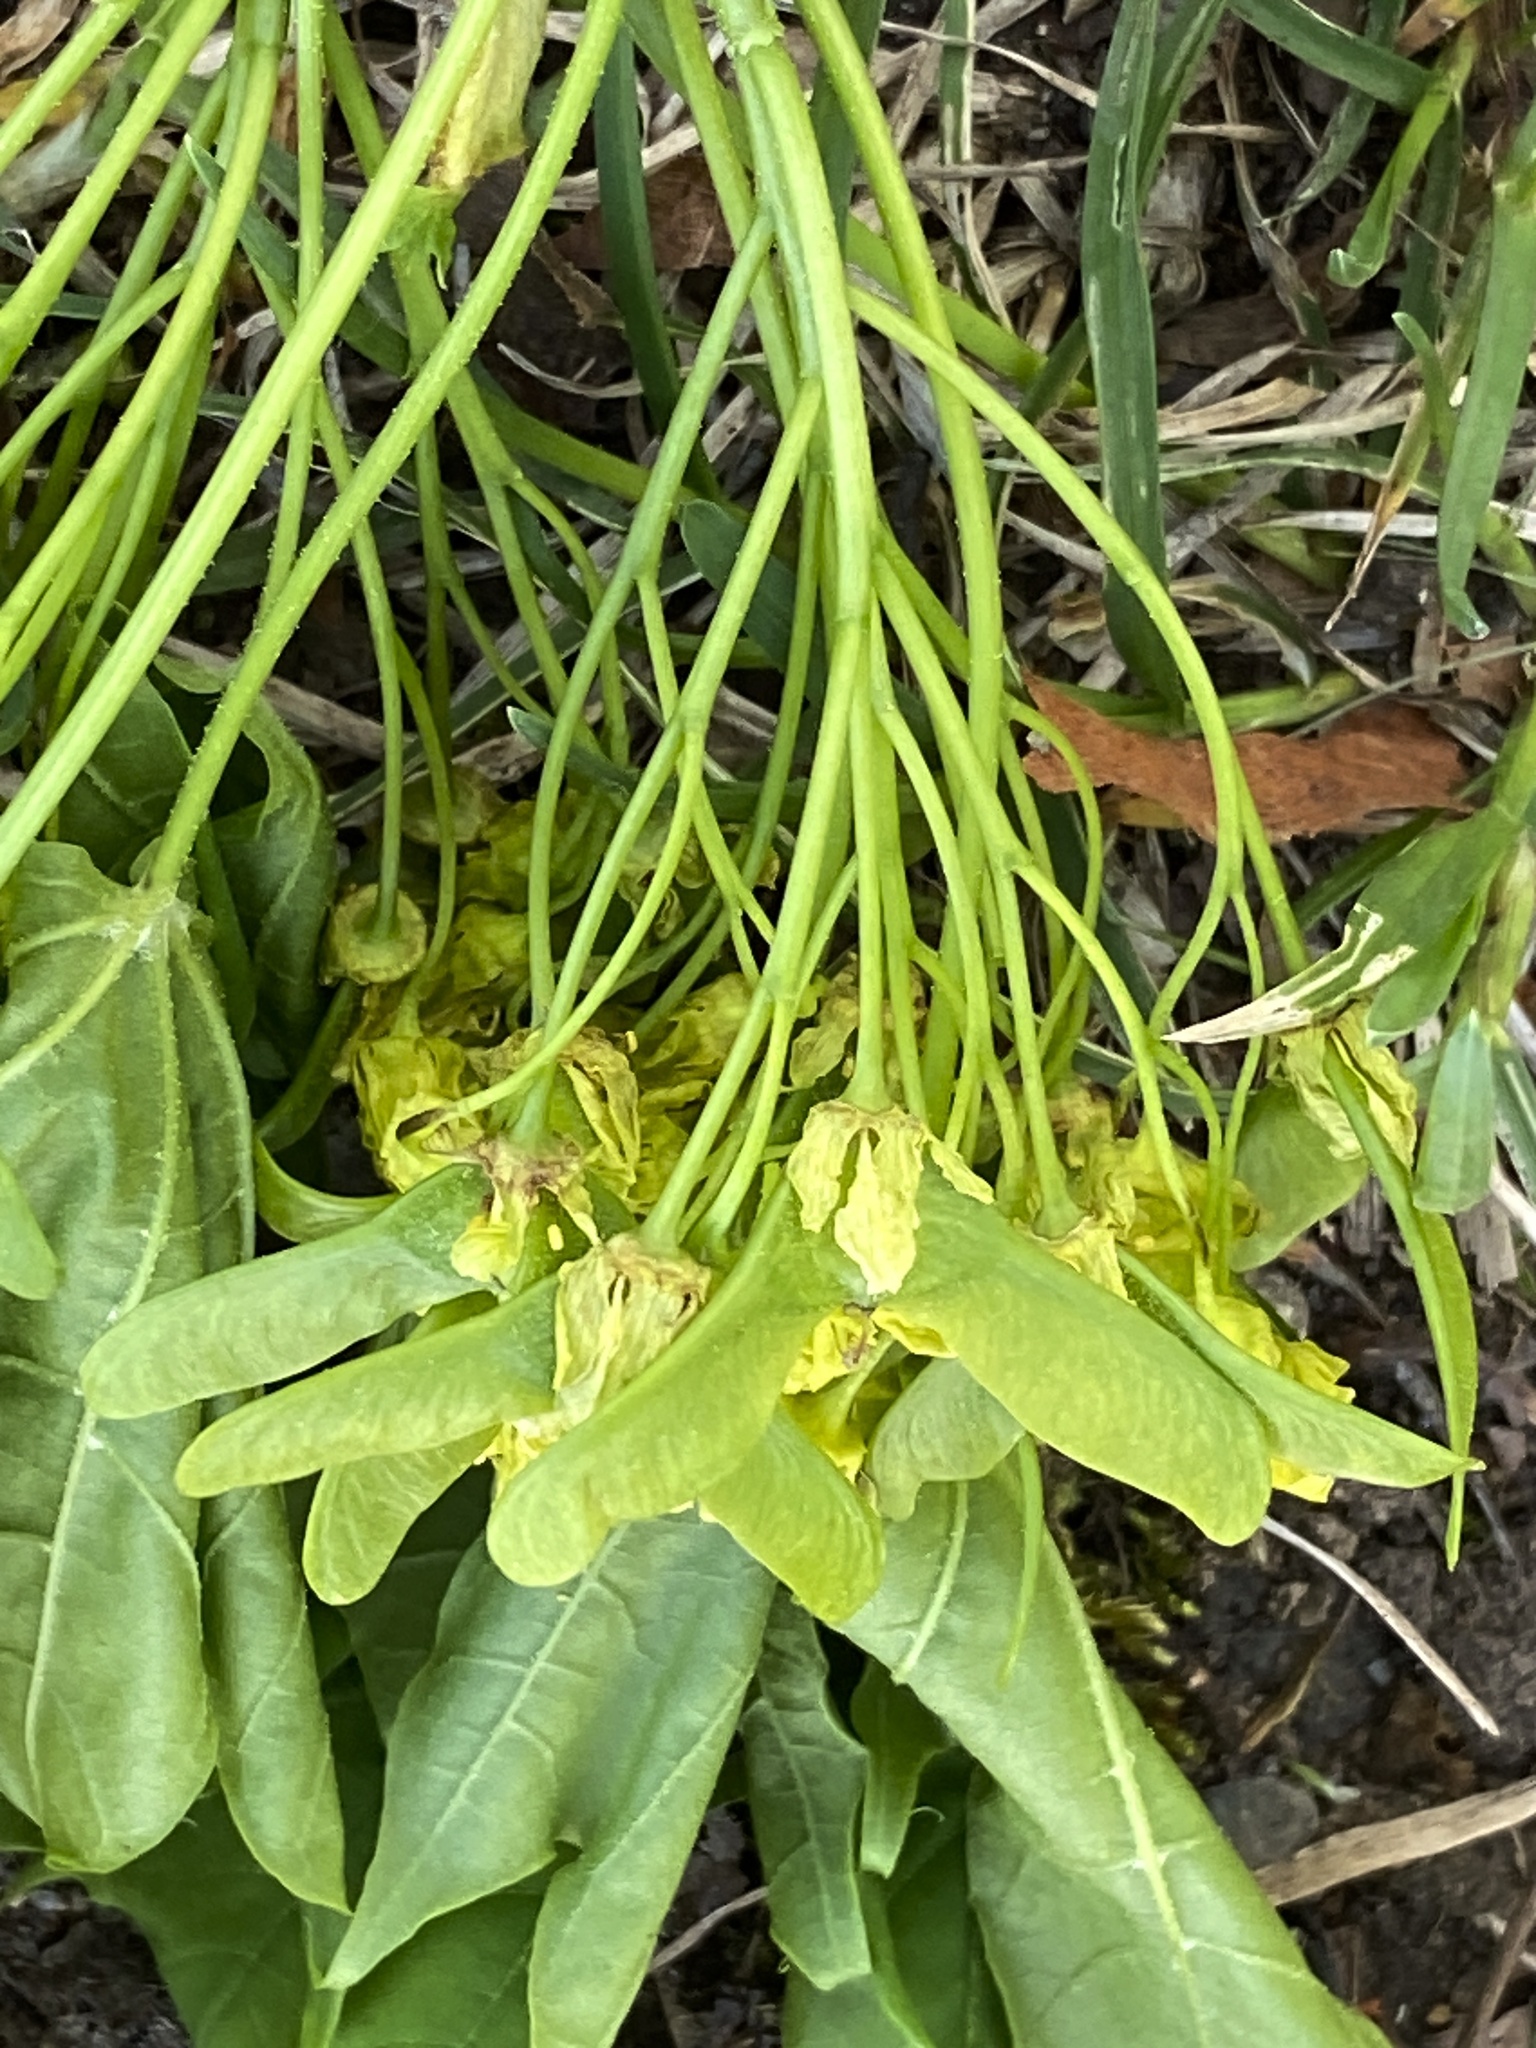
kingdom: Plantae
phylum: Tracheophyta
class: Magnoliopsida
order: Sapindales
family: Sapindaceae
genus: Acer
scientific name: Acer platanoides
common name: Norway maple
